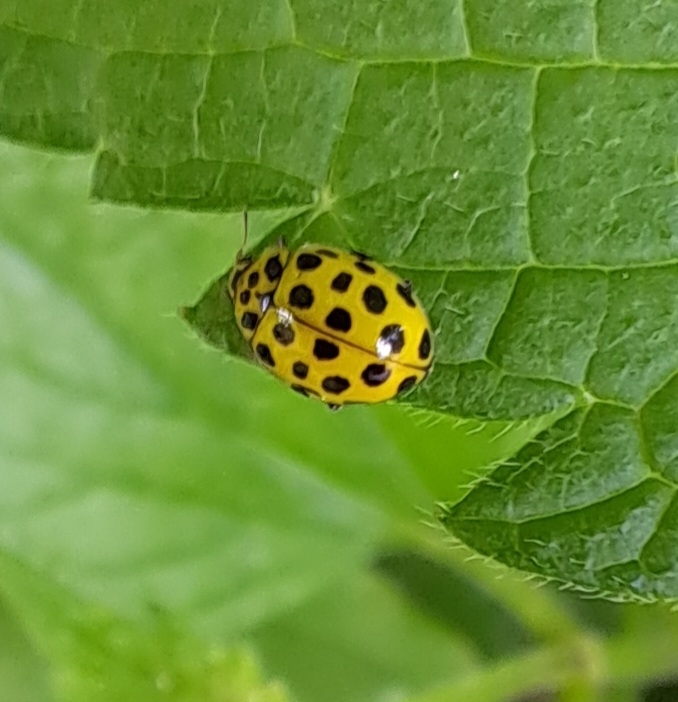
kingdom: Animalia
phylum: Arthropoda
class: Insecta
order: Coleoptera
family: Coccinellidae
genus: Psyllobora
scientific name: Psyllobora vigintiduopunctata
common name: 22-spot ladybird
